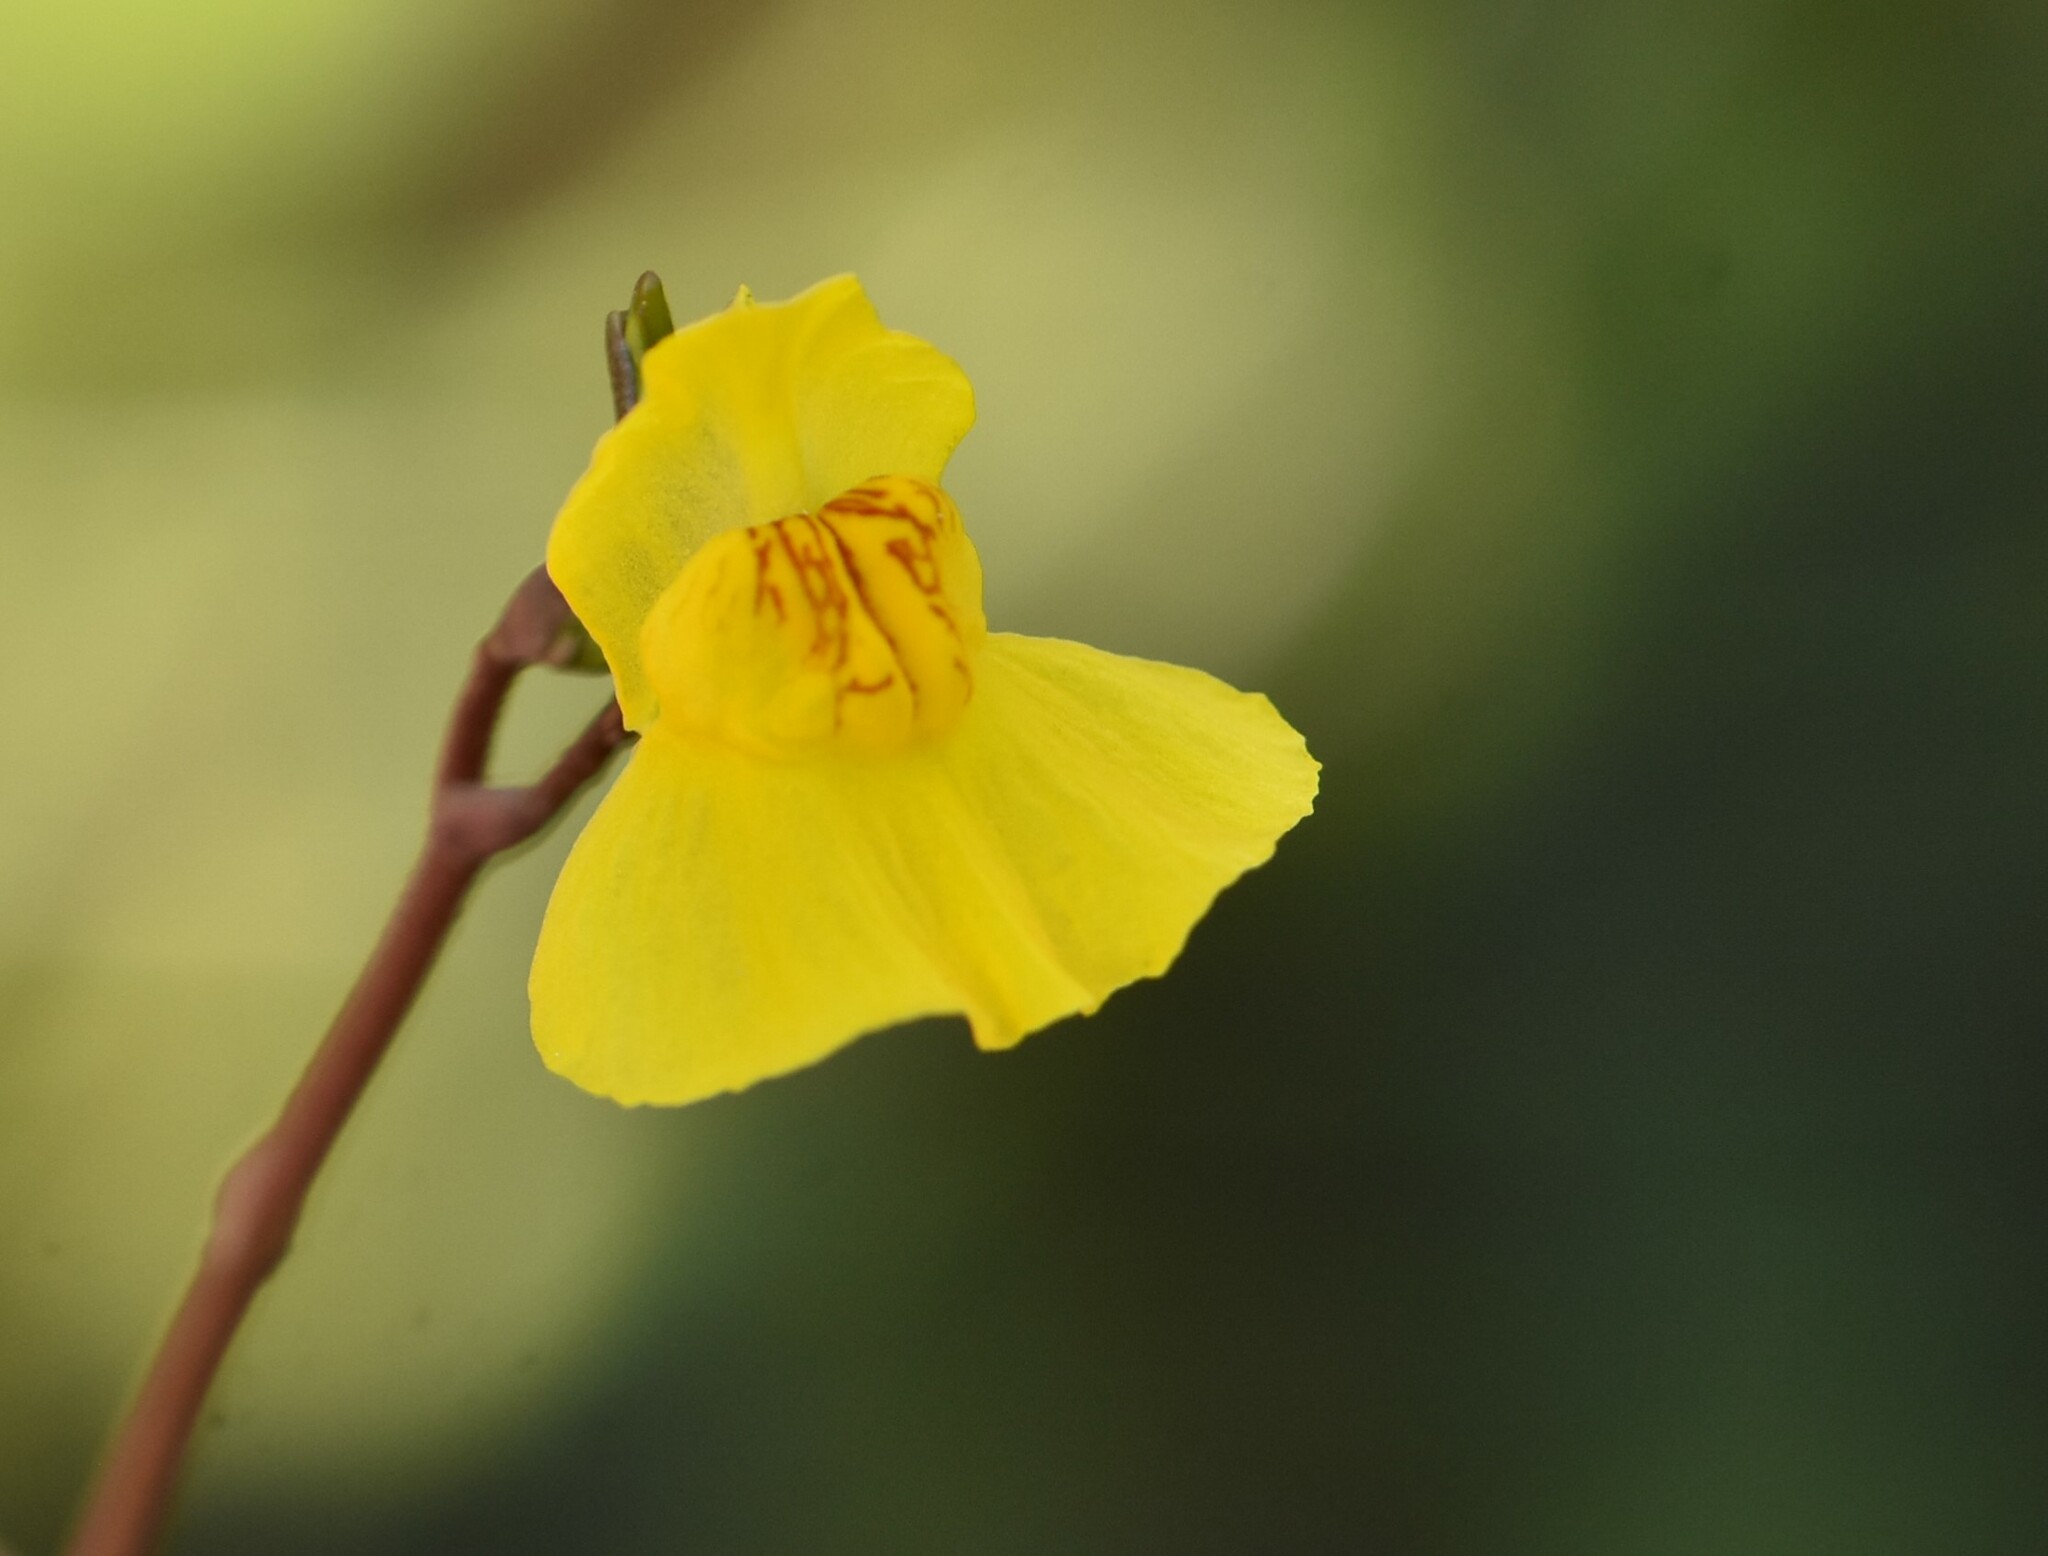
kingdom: Plantae
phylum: Tracheophyta
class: Magnoliopsida
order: Lamiales
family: Lentibulariaceae
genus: Utricularia
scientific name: Utricularia australis
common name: Bladderwort
